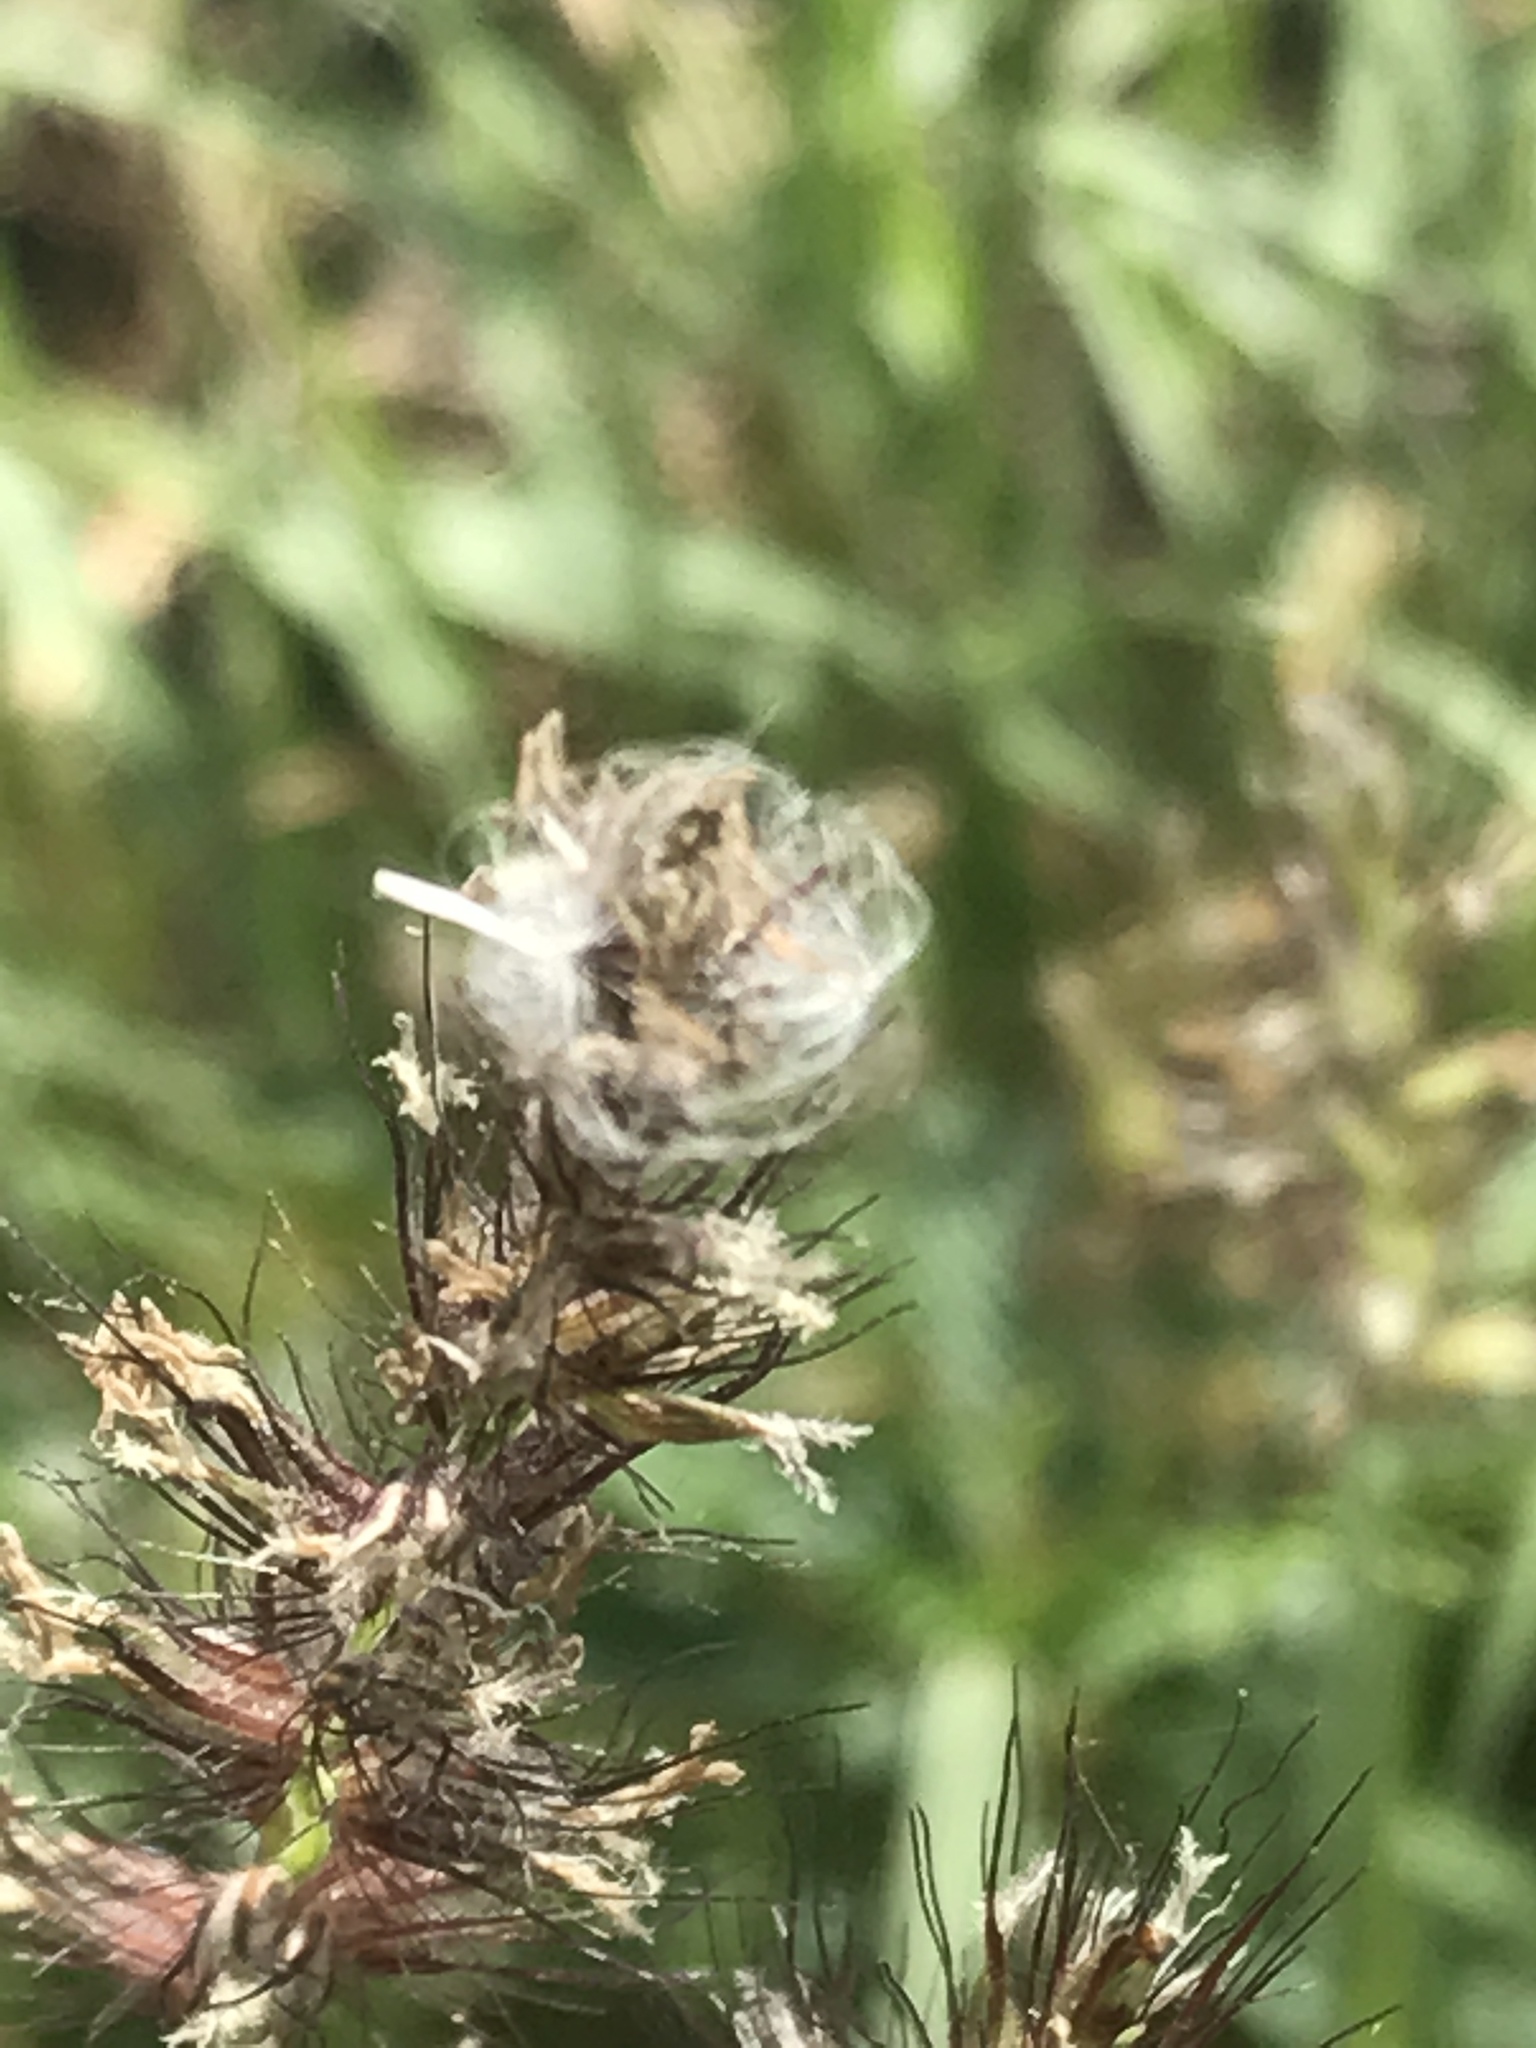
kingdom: Plantae
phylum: Tracheophyta
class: Liliopsida
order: Poales
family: Poaceae
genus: Cenchrus
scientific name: Cenchrus ciliaris
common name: Buffelgrass
